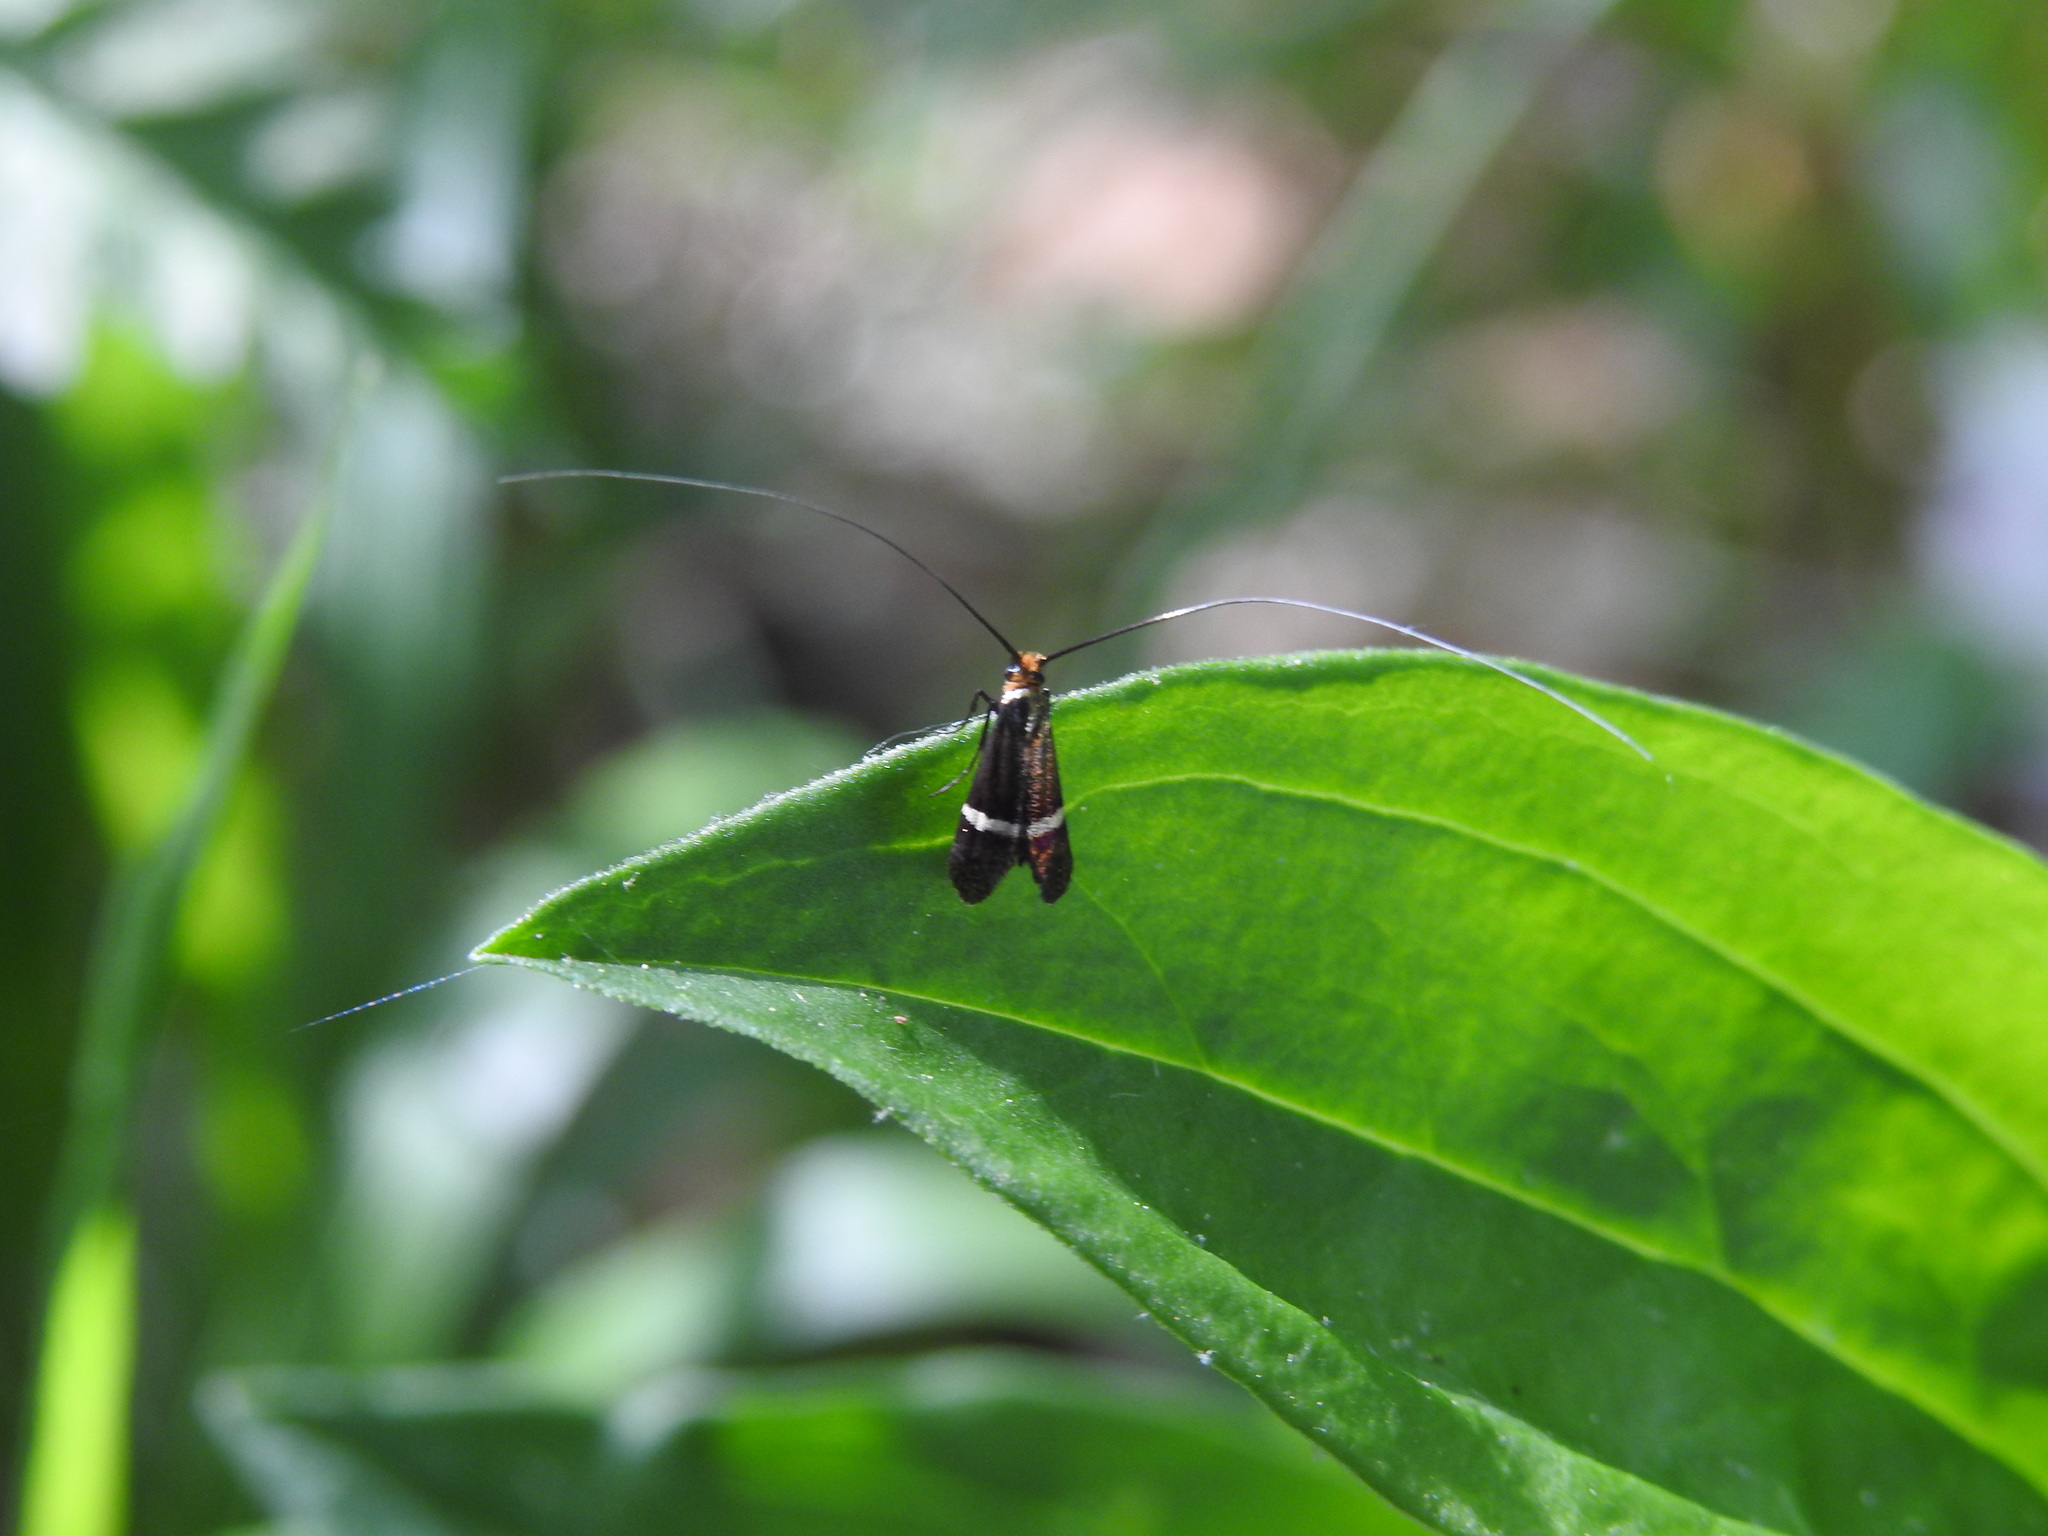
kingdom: Animalia
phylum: Arthropoda
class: Insecta
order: Lepidoptera
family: Adelidae
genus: Adela
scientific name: Adela australis
